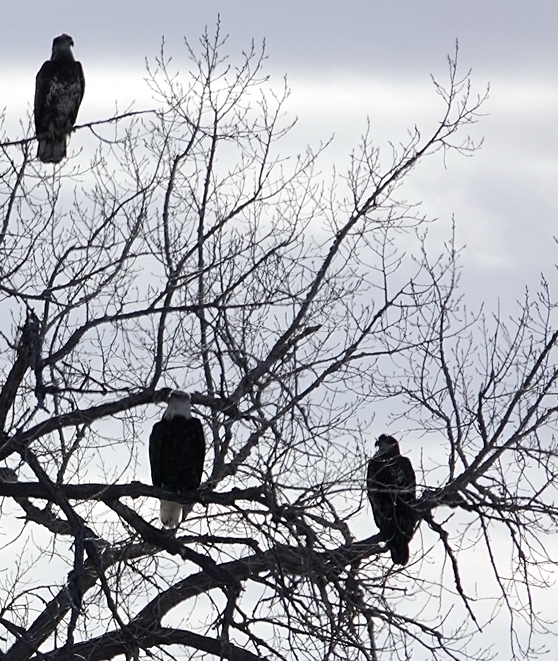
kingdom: Animalia
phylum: Chordata
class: Aves
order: Accipitriformes
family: Accipitridae
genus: Haliaeetus
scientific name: Haliaeetus leucocephalus
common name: Bald eagle
